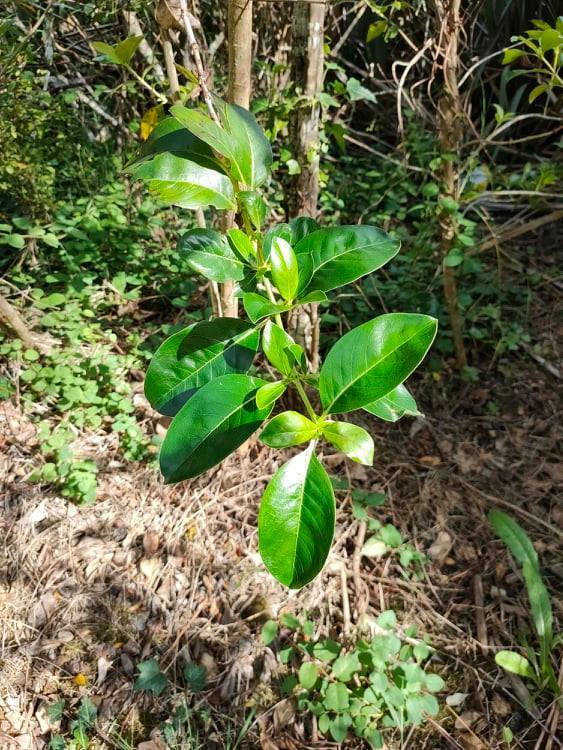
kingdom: Plantae
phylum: Tracheophyta
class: Magnoliopsida
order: Gentianales
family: Rubiaceae
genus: Coprosma
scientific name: Coprosma robusta
